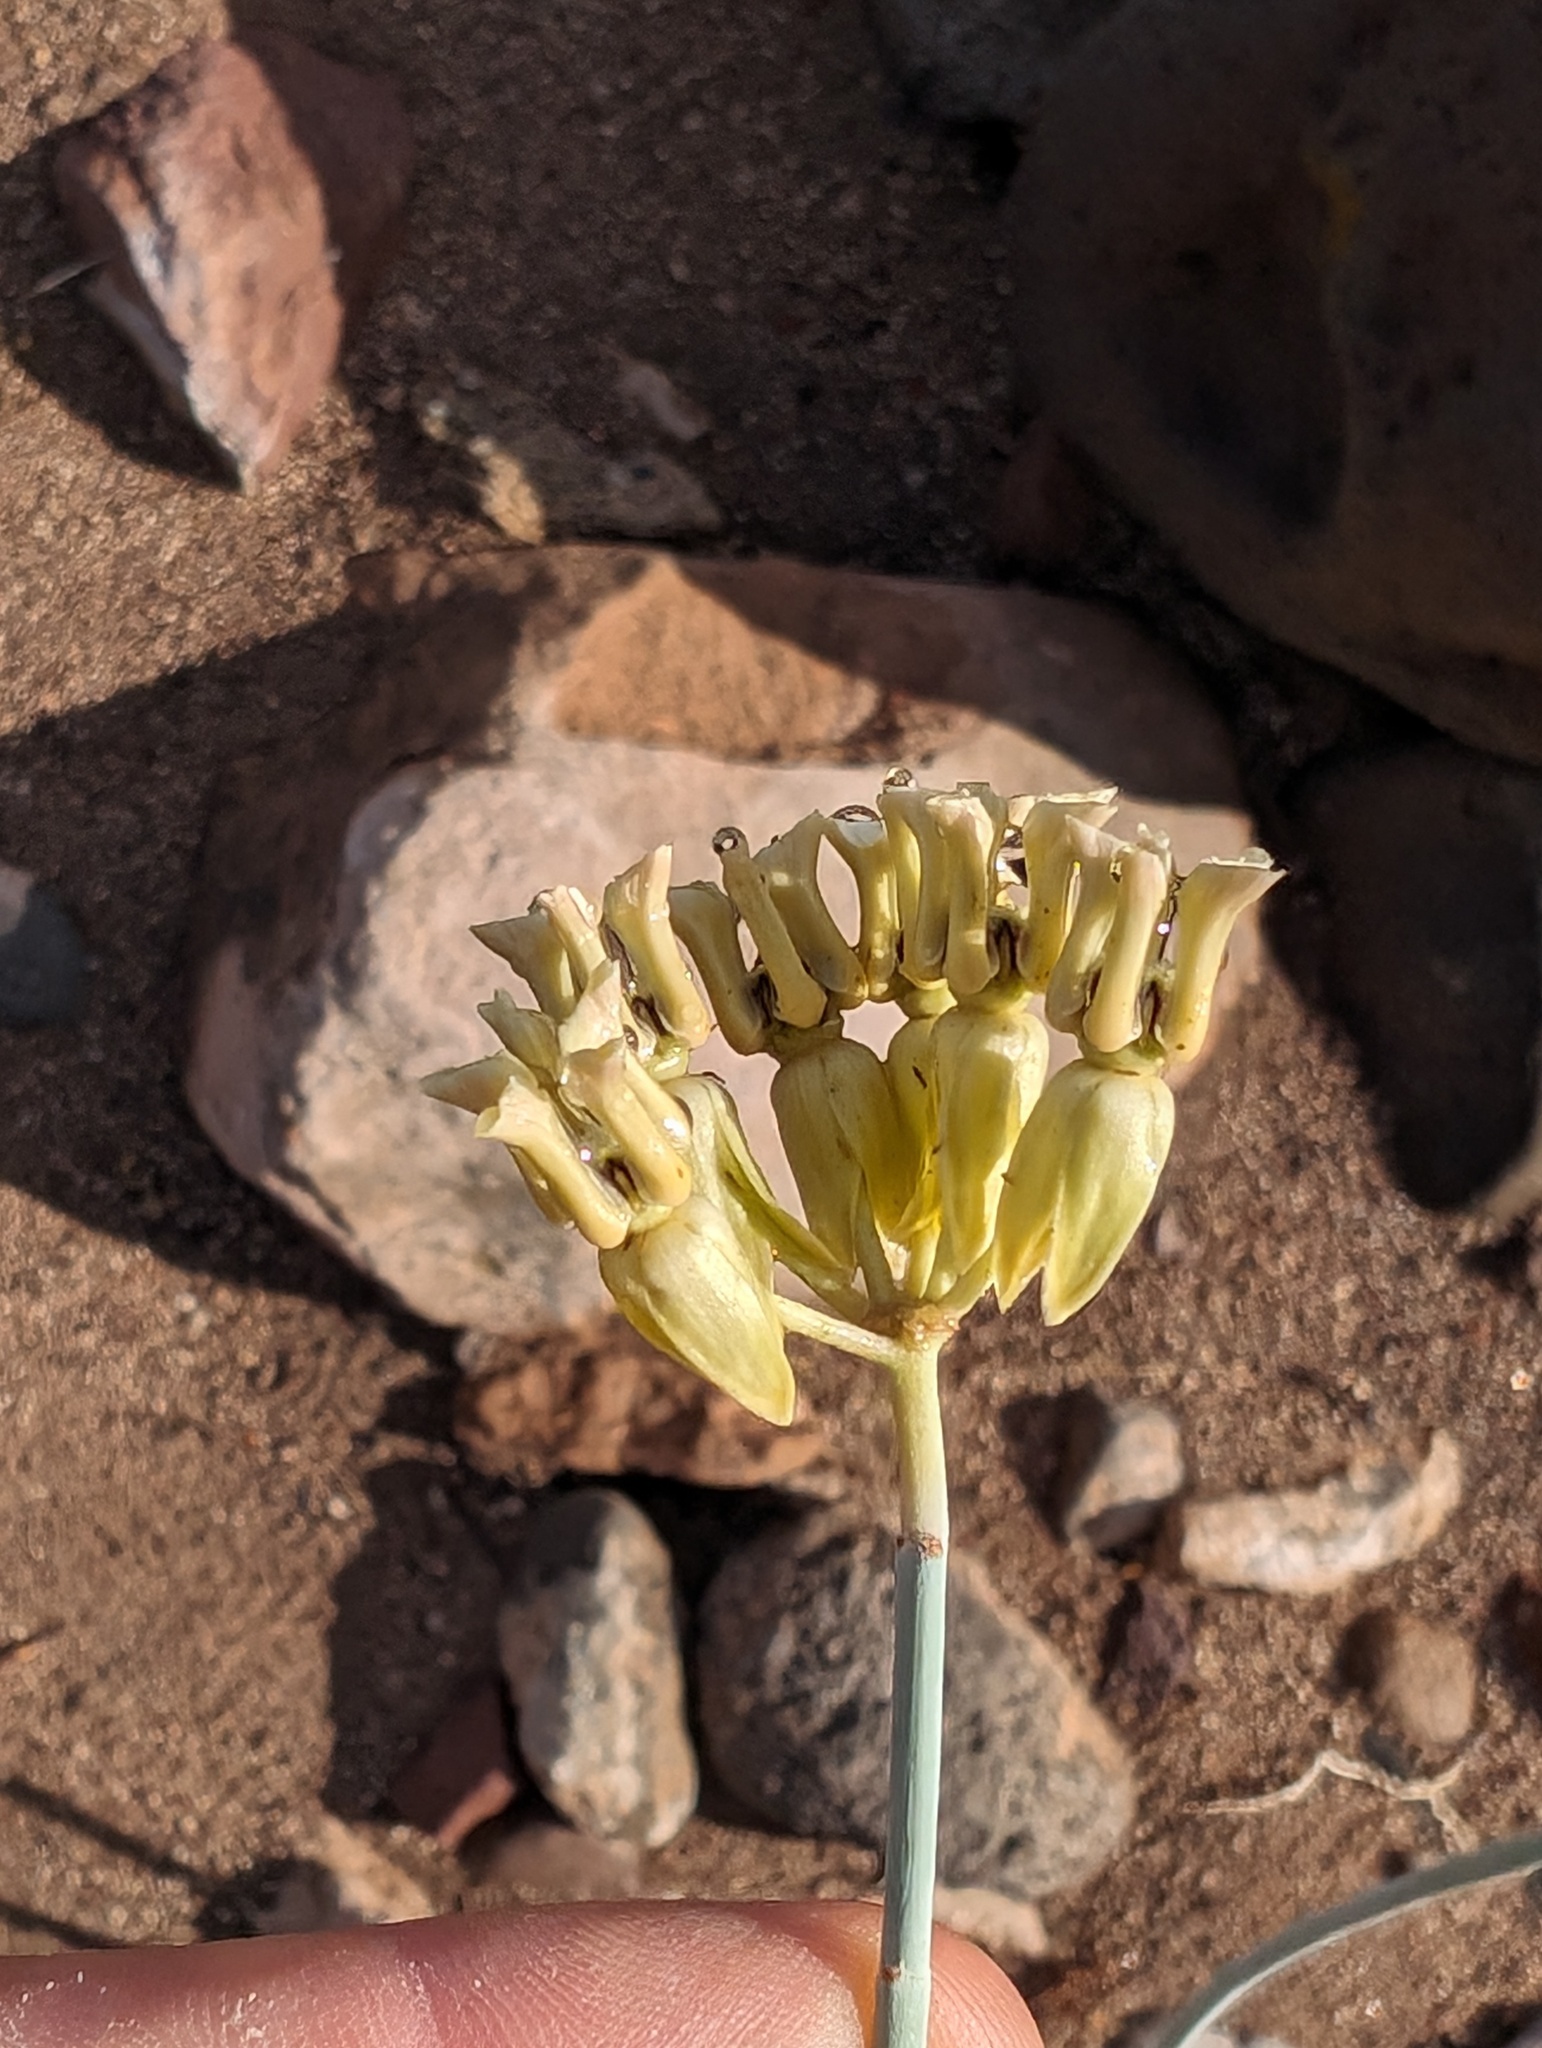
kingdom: Plantae
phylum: Tracheophyta
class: Magnoliopsida
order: Gentianales
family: Apocynaceae
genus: Asclepias
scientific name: Asclepias subulata
